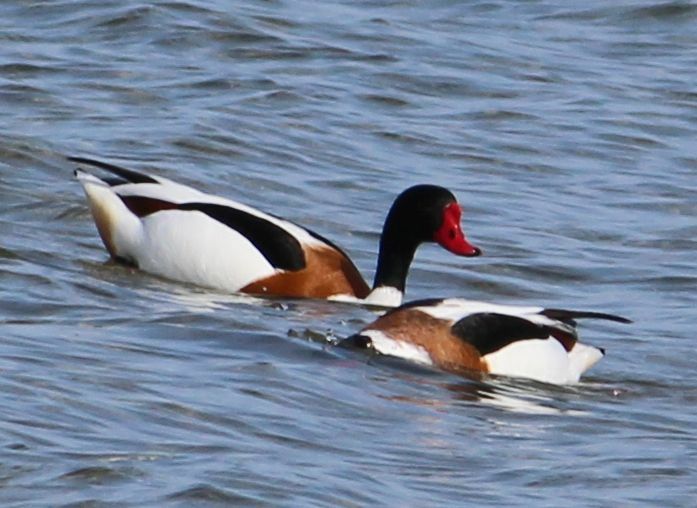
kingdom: Animalia
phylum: Chordata
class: Aves
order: Anseriformes
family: Anatidae
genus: Tadorna
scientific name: Tadorna tadorna
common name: Common shelduck
